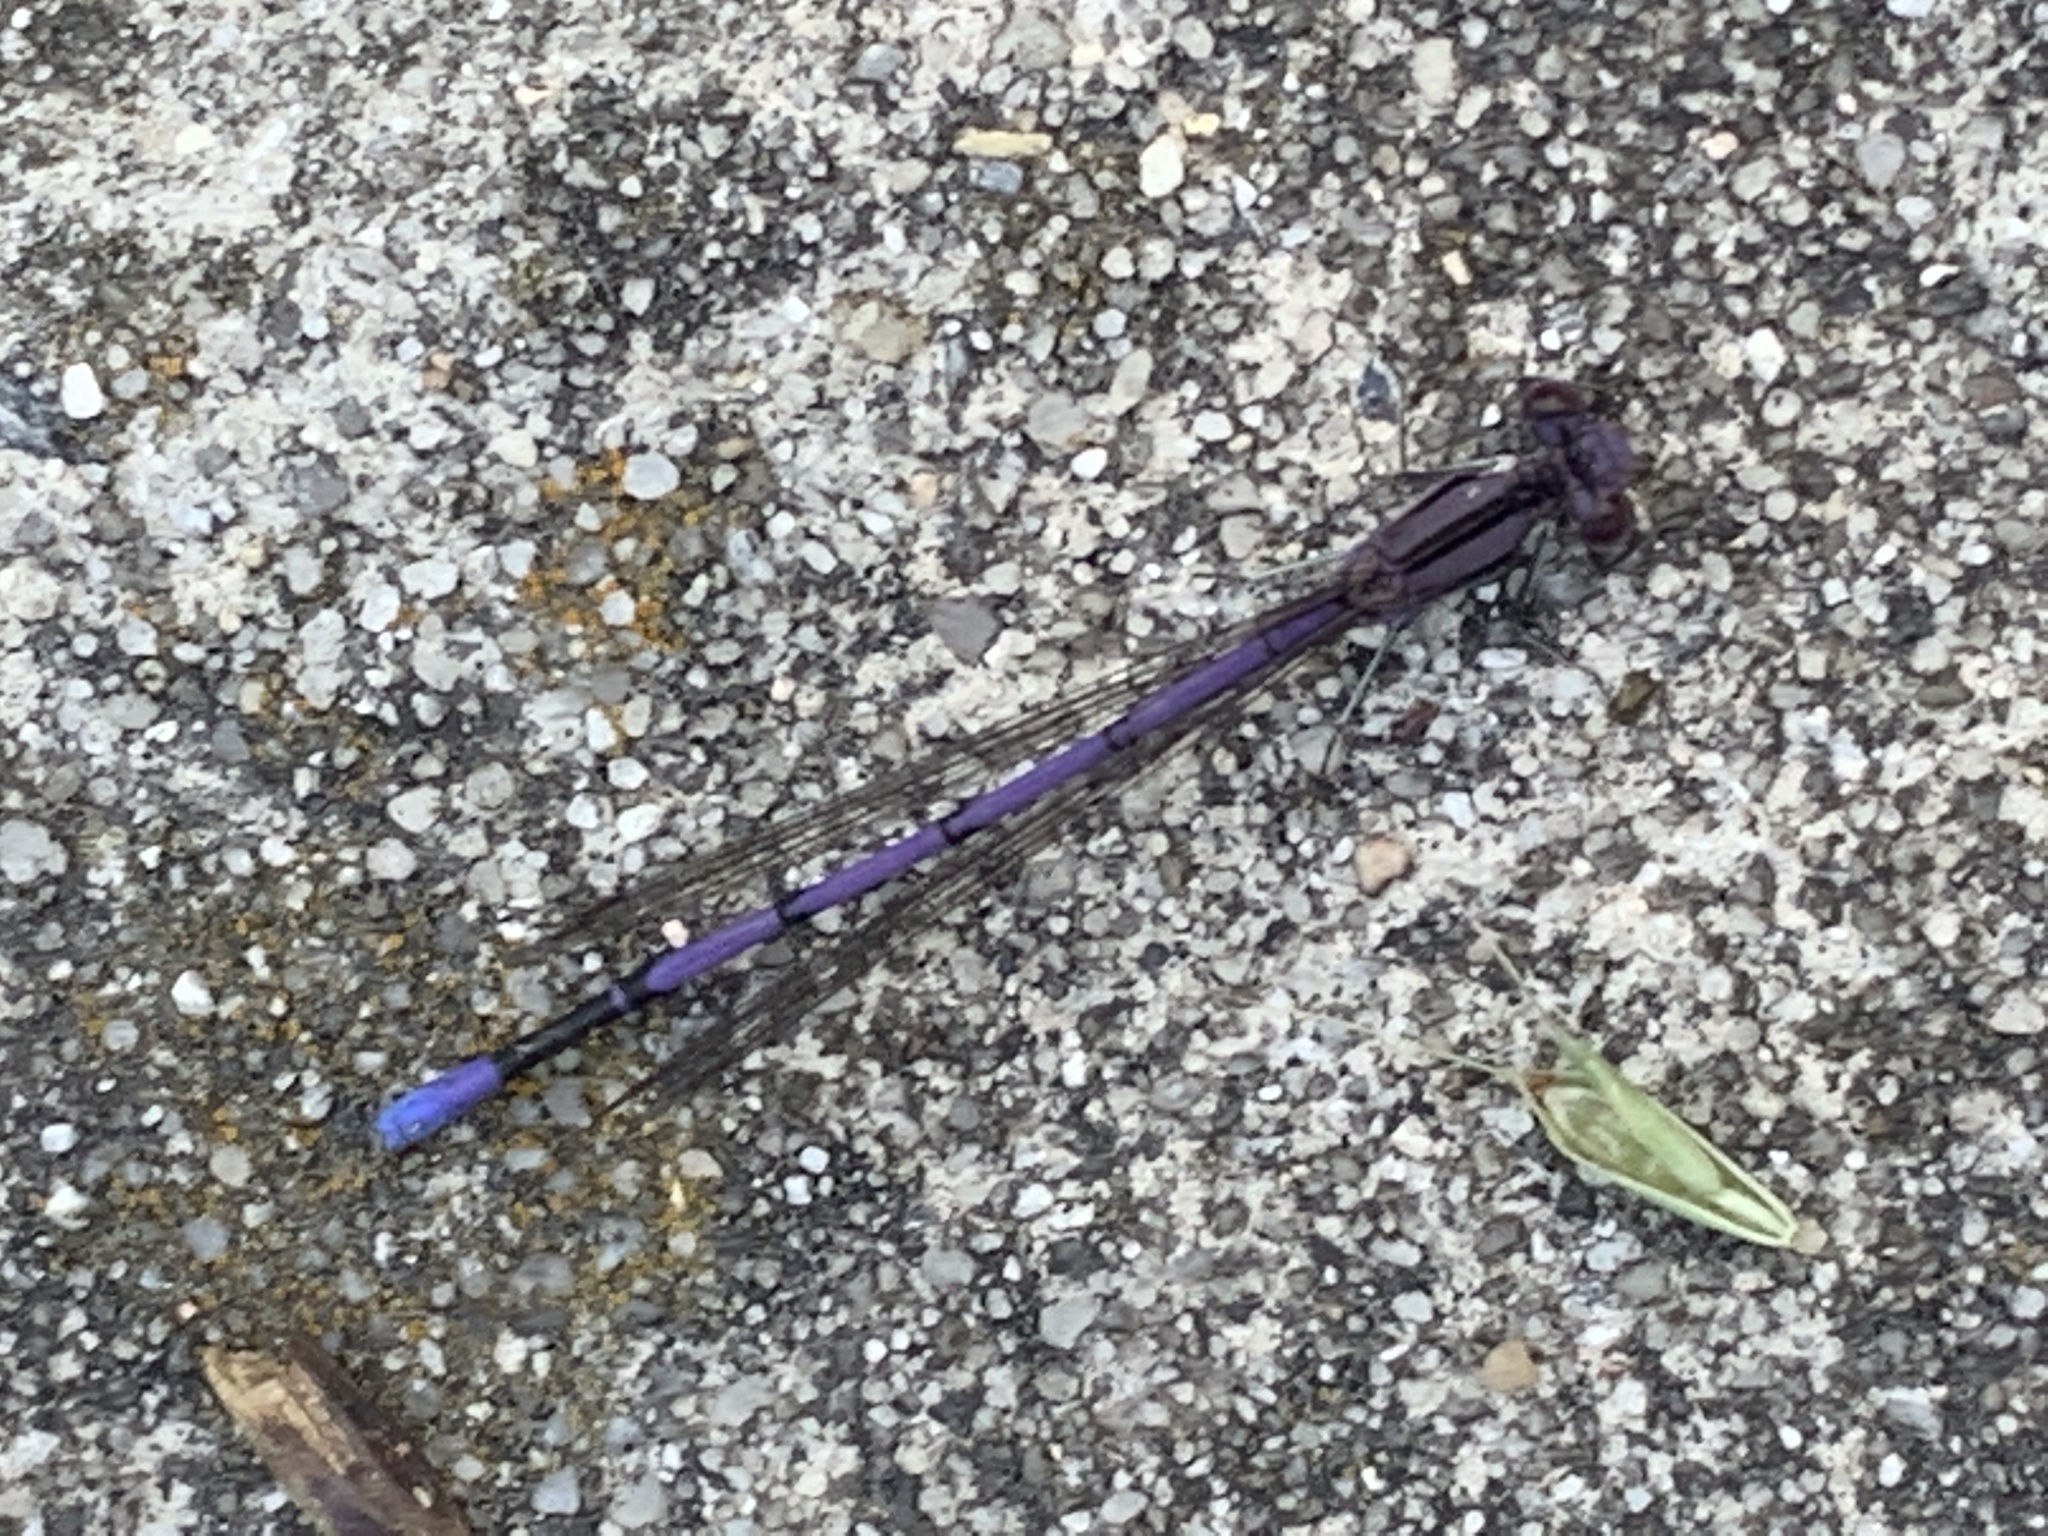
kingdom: Animalia
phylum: Arthropoda
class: Insecta
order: Odonata
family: Coenagrionidae
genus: Argia
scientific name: Argia fumipennis
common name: Variable dancer
